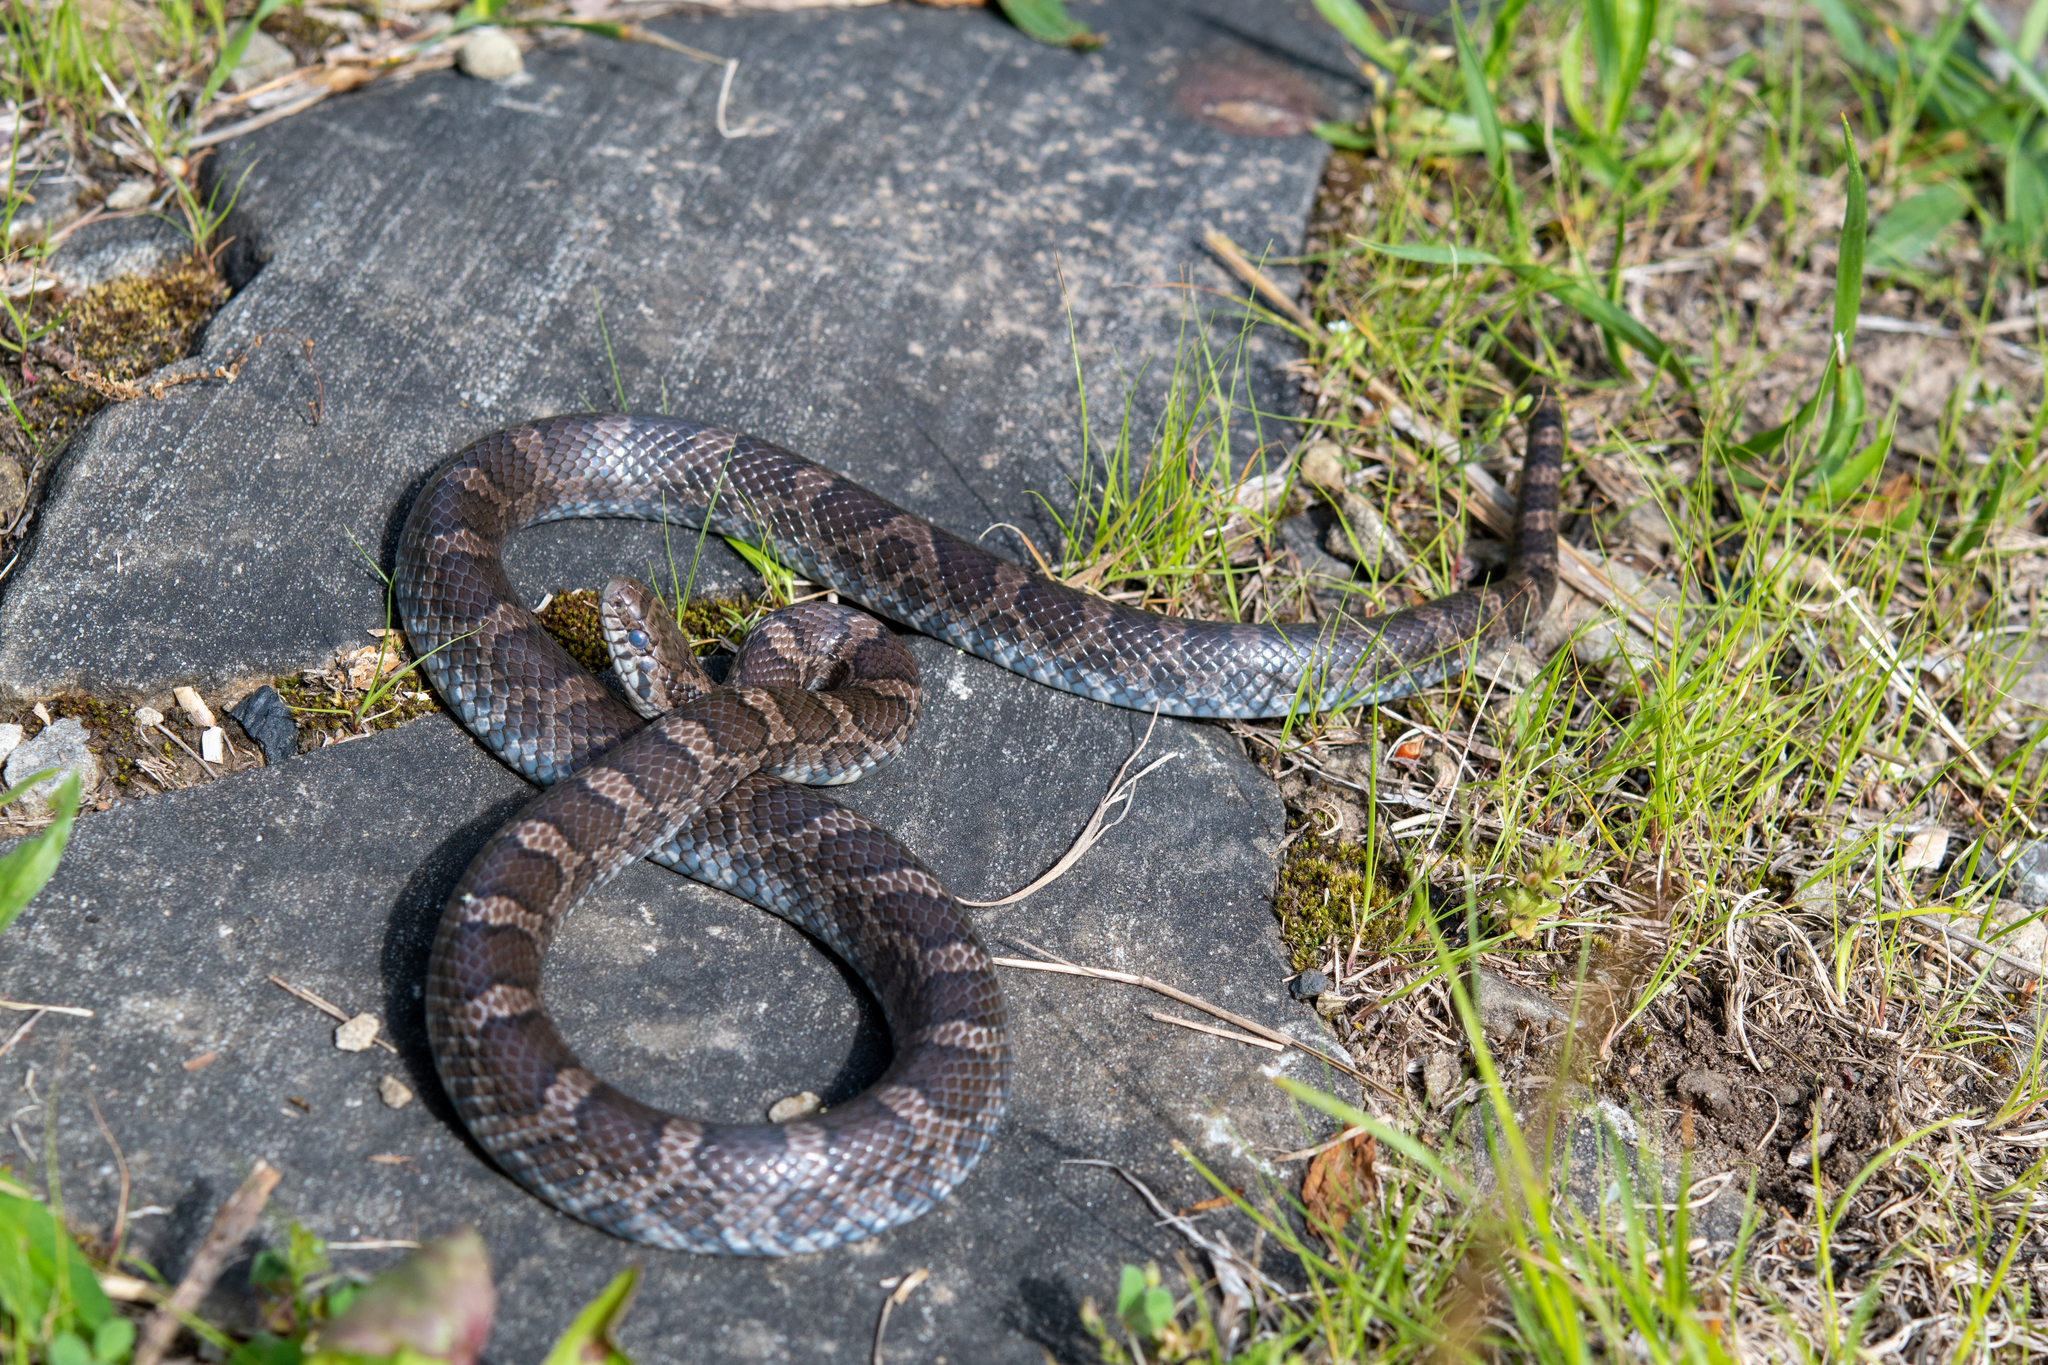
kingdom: Animalia
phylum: Chordata
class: Squamata
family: Colubridae
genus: Lampropeltis
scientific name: Lampropeltis triangulum
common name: Eastern milksnake
